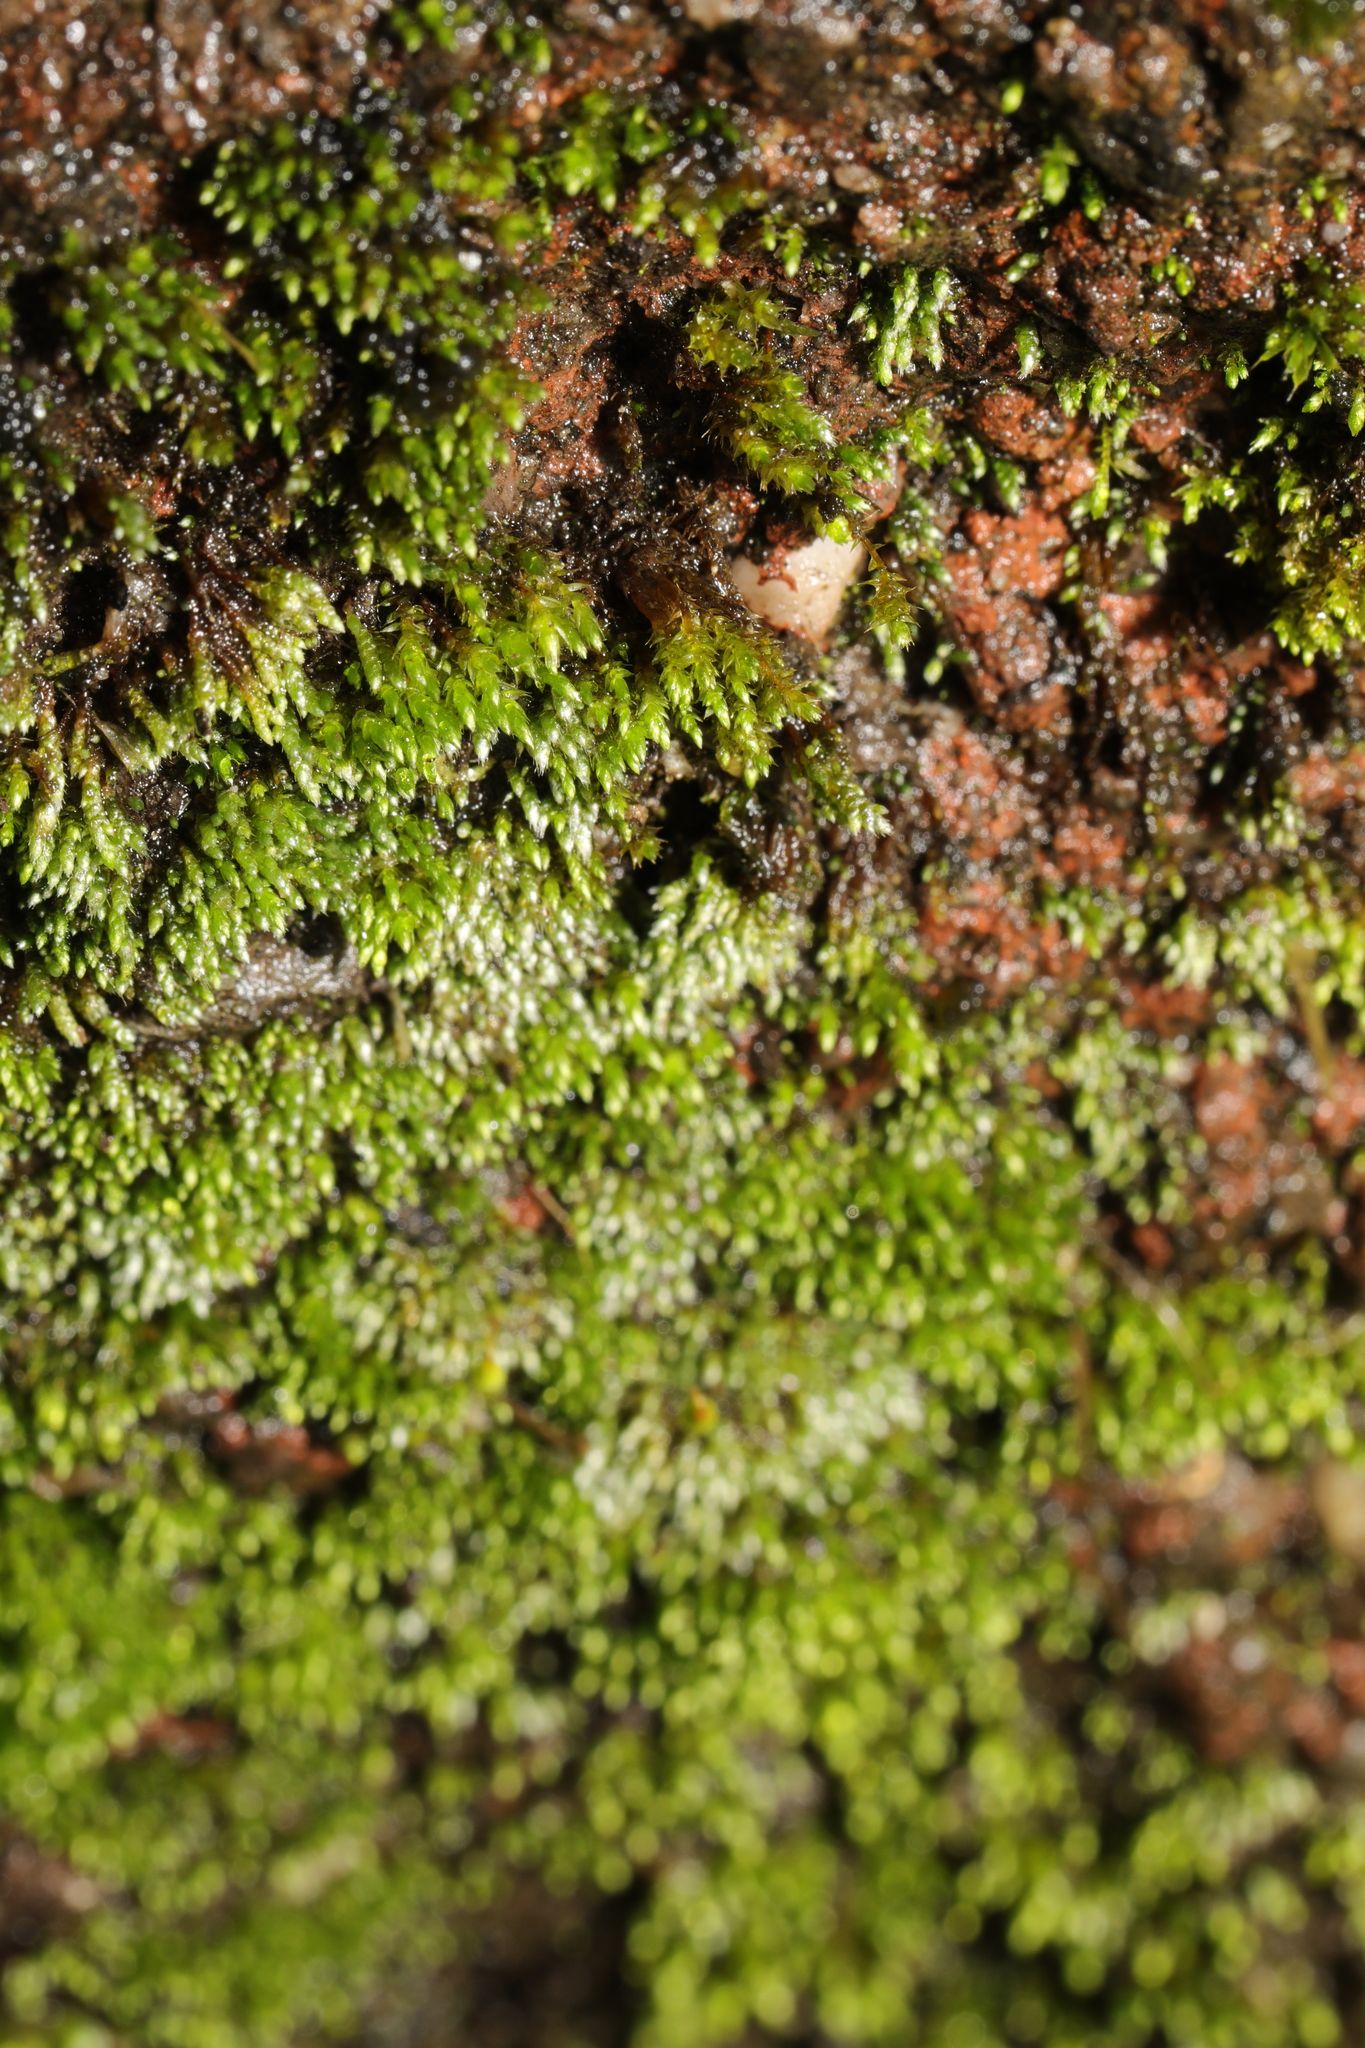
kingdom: Plantae
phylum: Bryophyta
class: Bryopsida
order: Bryales
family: Bryaceae
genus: Bryum
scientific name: Bryum argenteum
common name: Silver-moss
